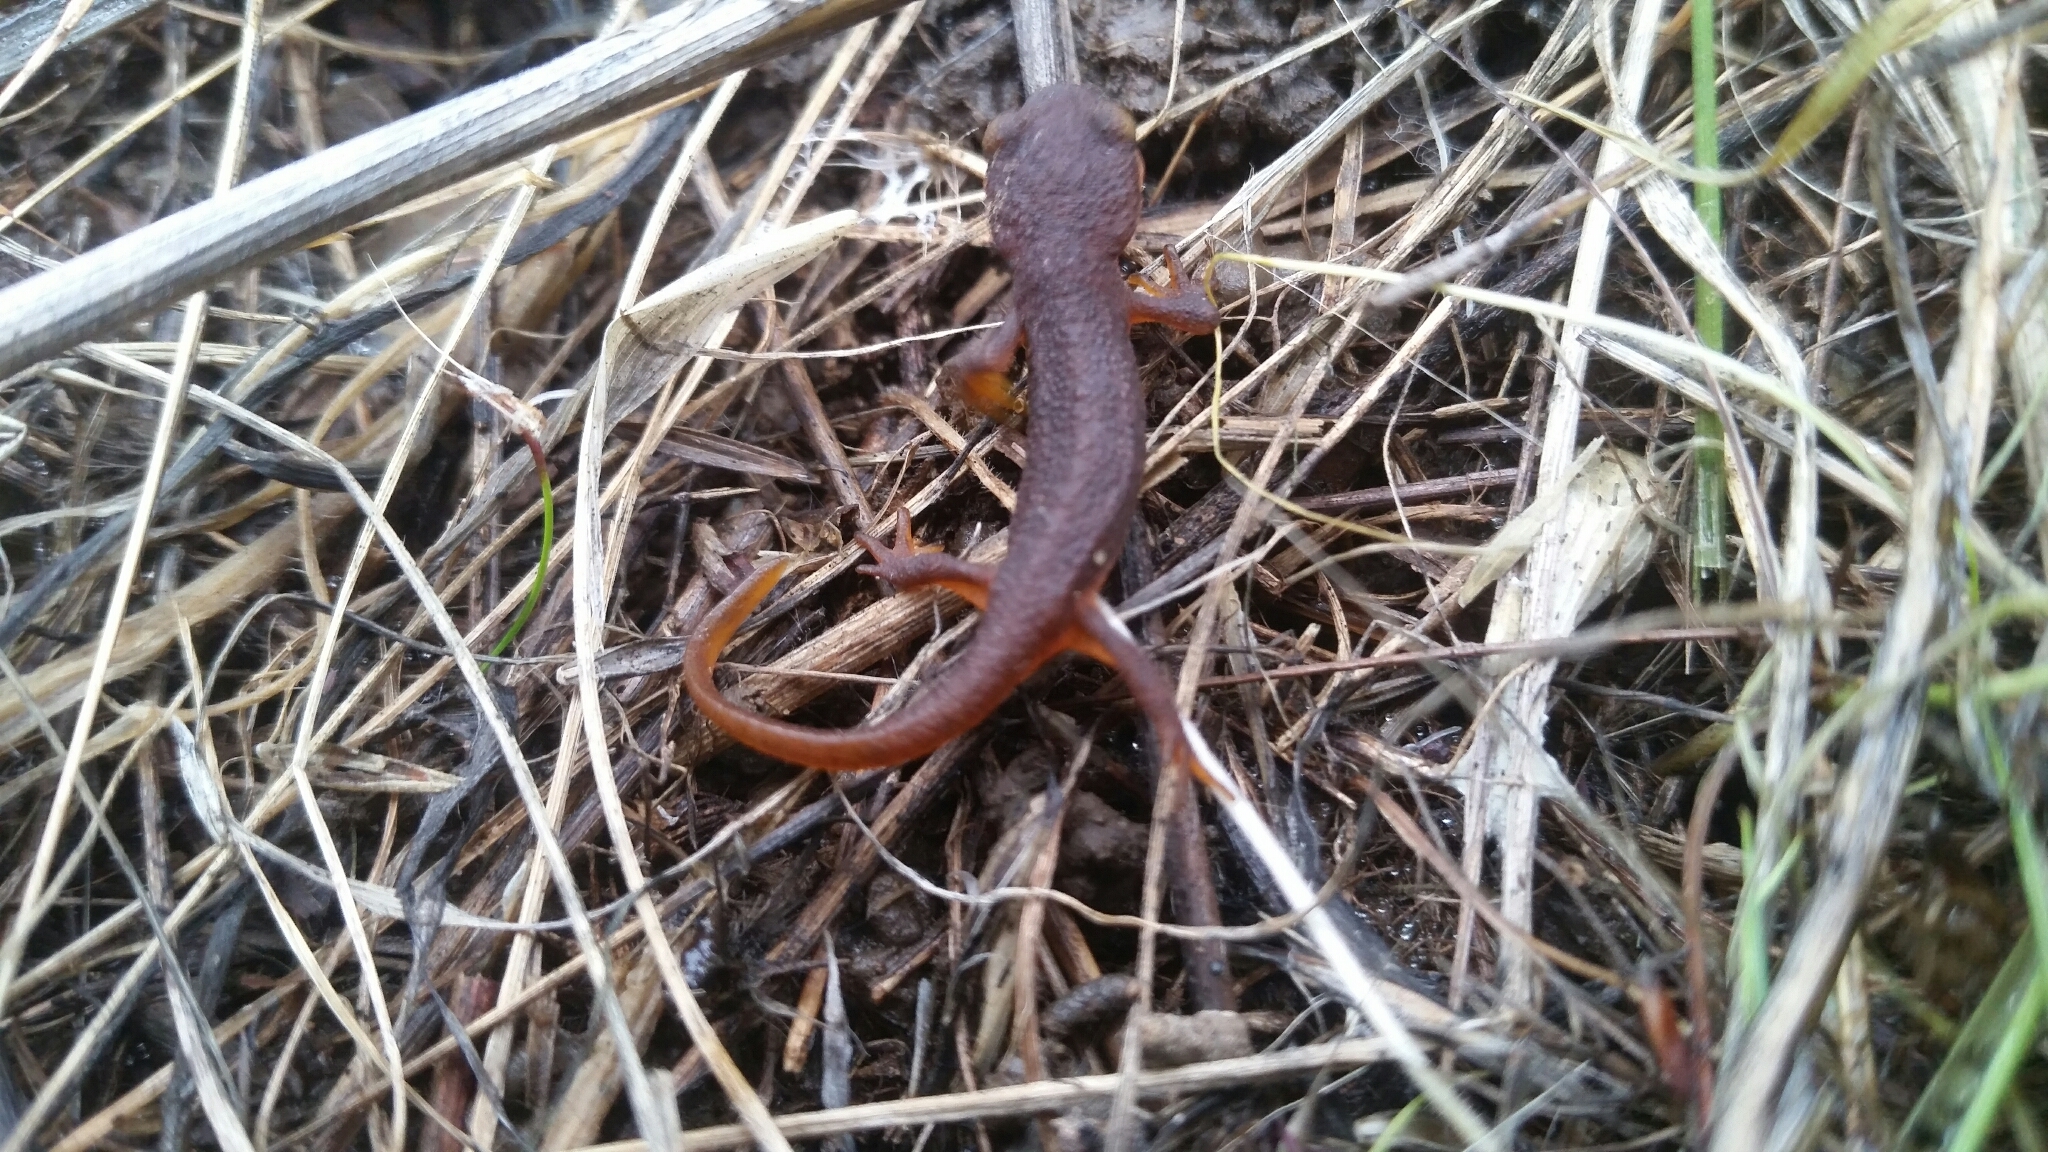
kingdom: Animalia
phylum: Chordata
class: Amphibia
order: Caudata
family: Salamandridae
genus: Taricha
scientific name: Taricha torosa
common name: California newt
